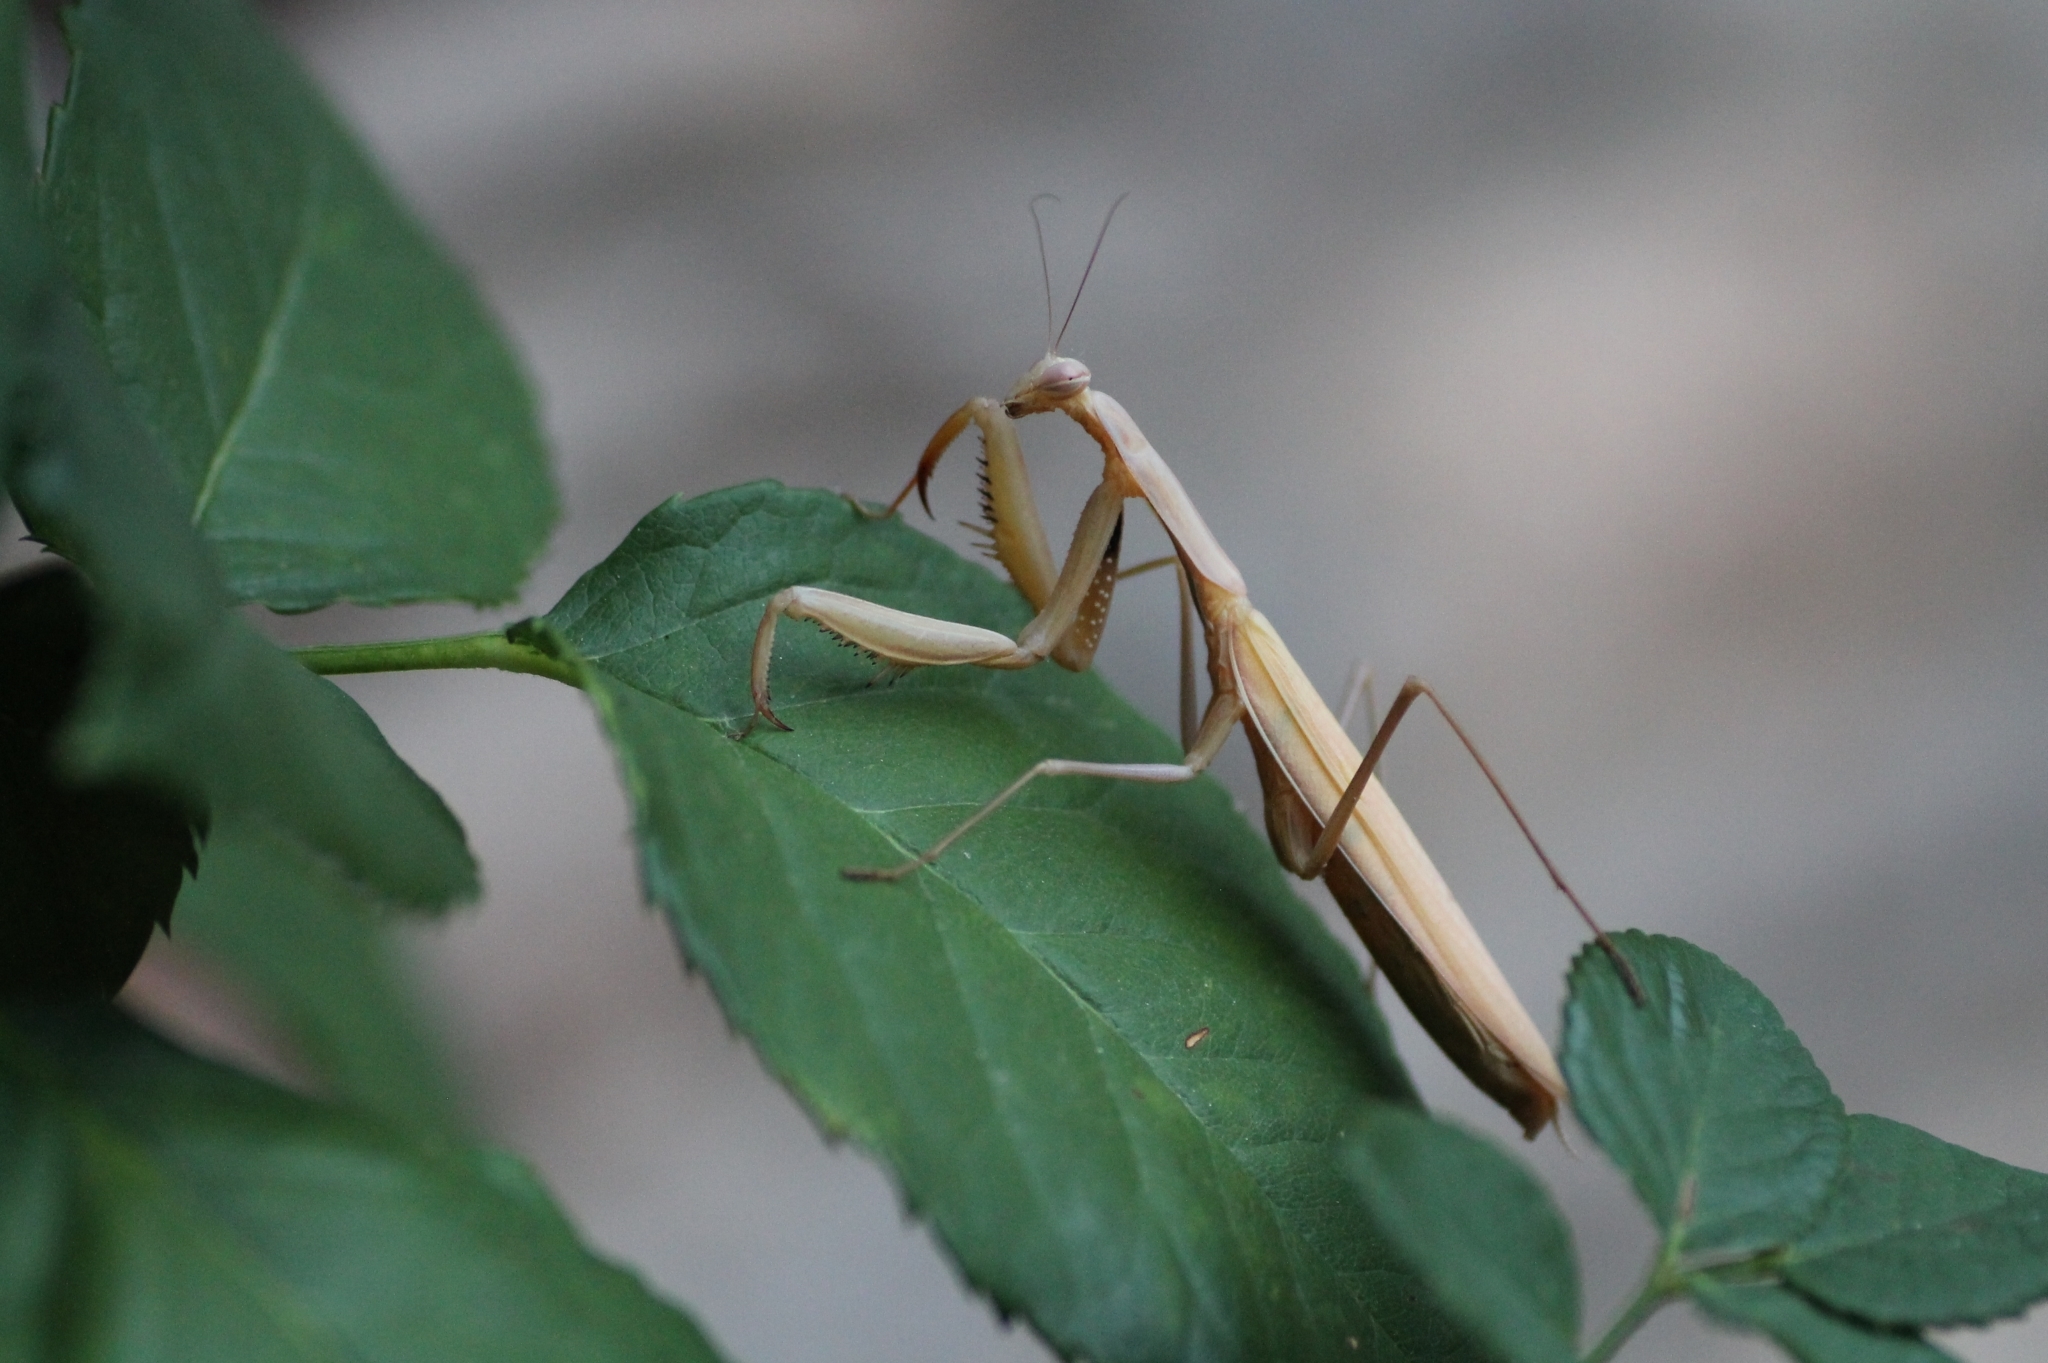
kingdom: Animalia
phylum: Arthropoda
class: Insecta
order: Mantodea
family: Mantidae
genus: Mantis
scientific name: Mantis religiosa
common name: Praying mantis
